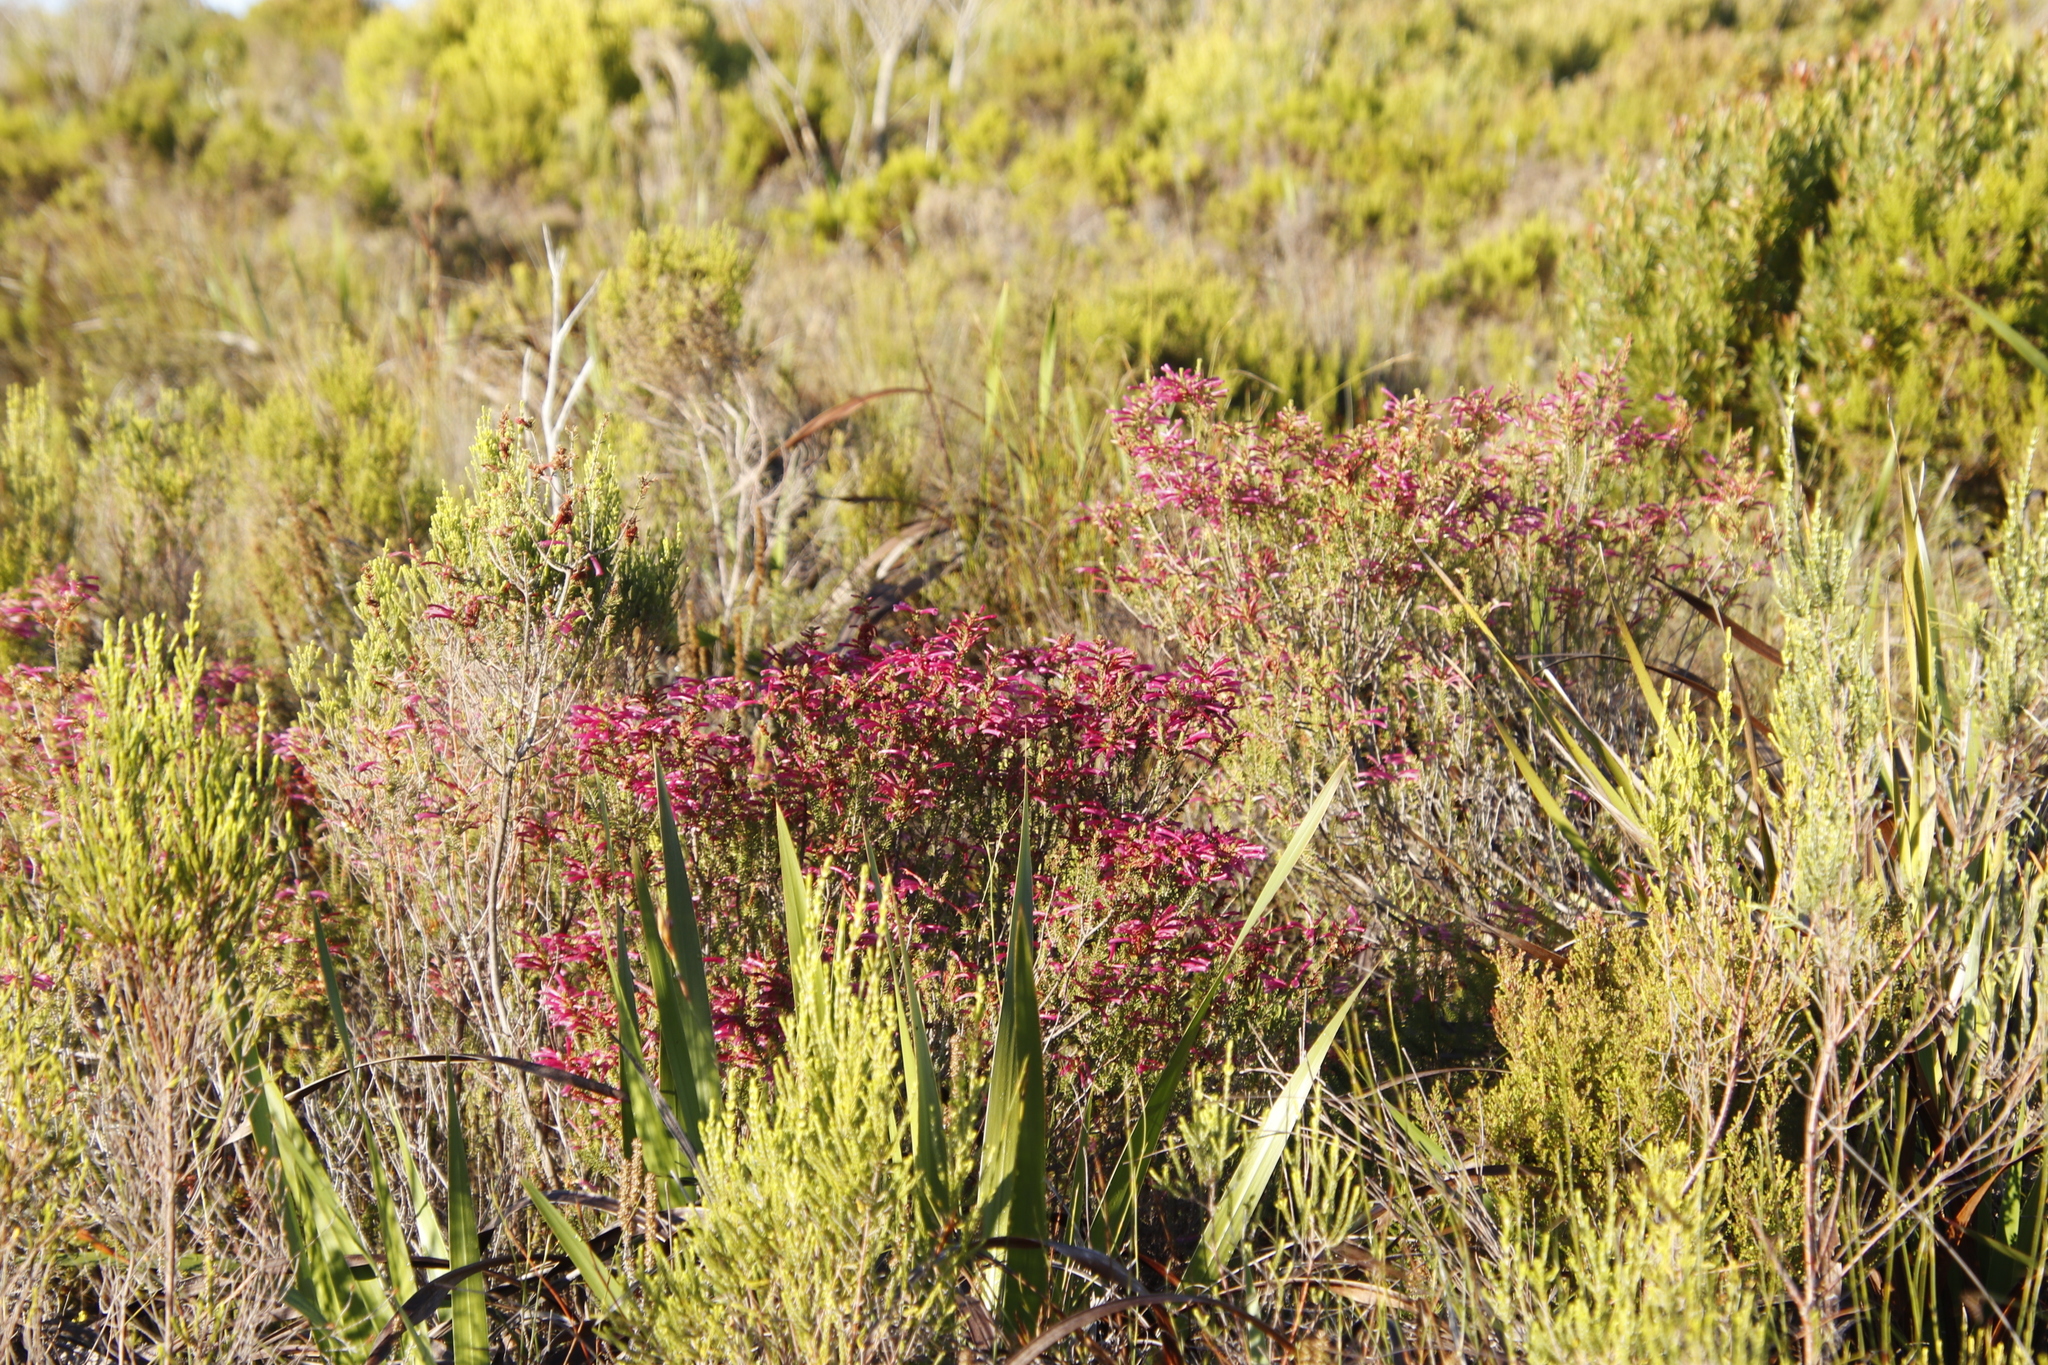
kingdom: Plantae
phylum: Tracheophyta
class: Magnoliopsida
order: Ericales
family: Ericaceae
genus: Erica
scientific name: Erica abietina
